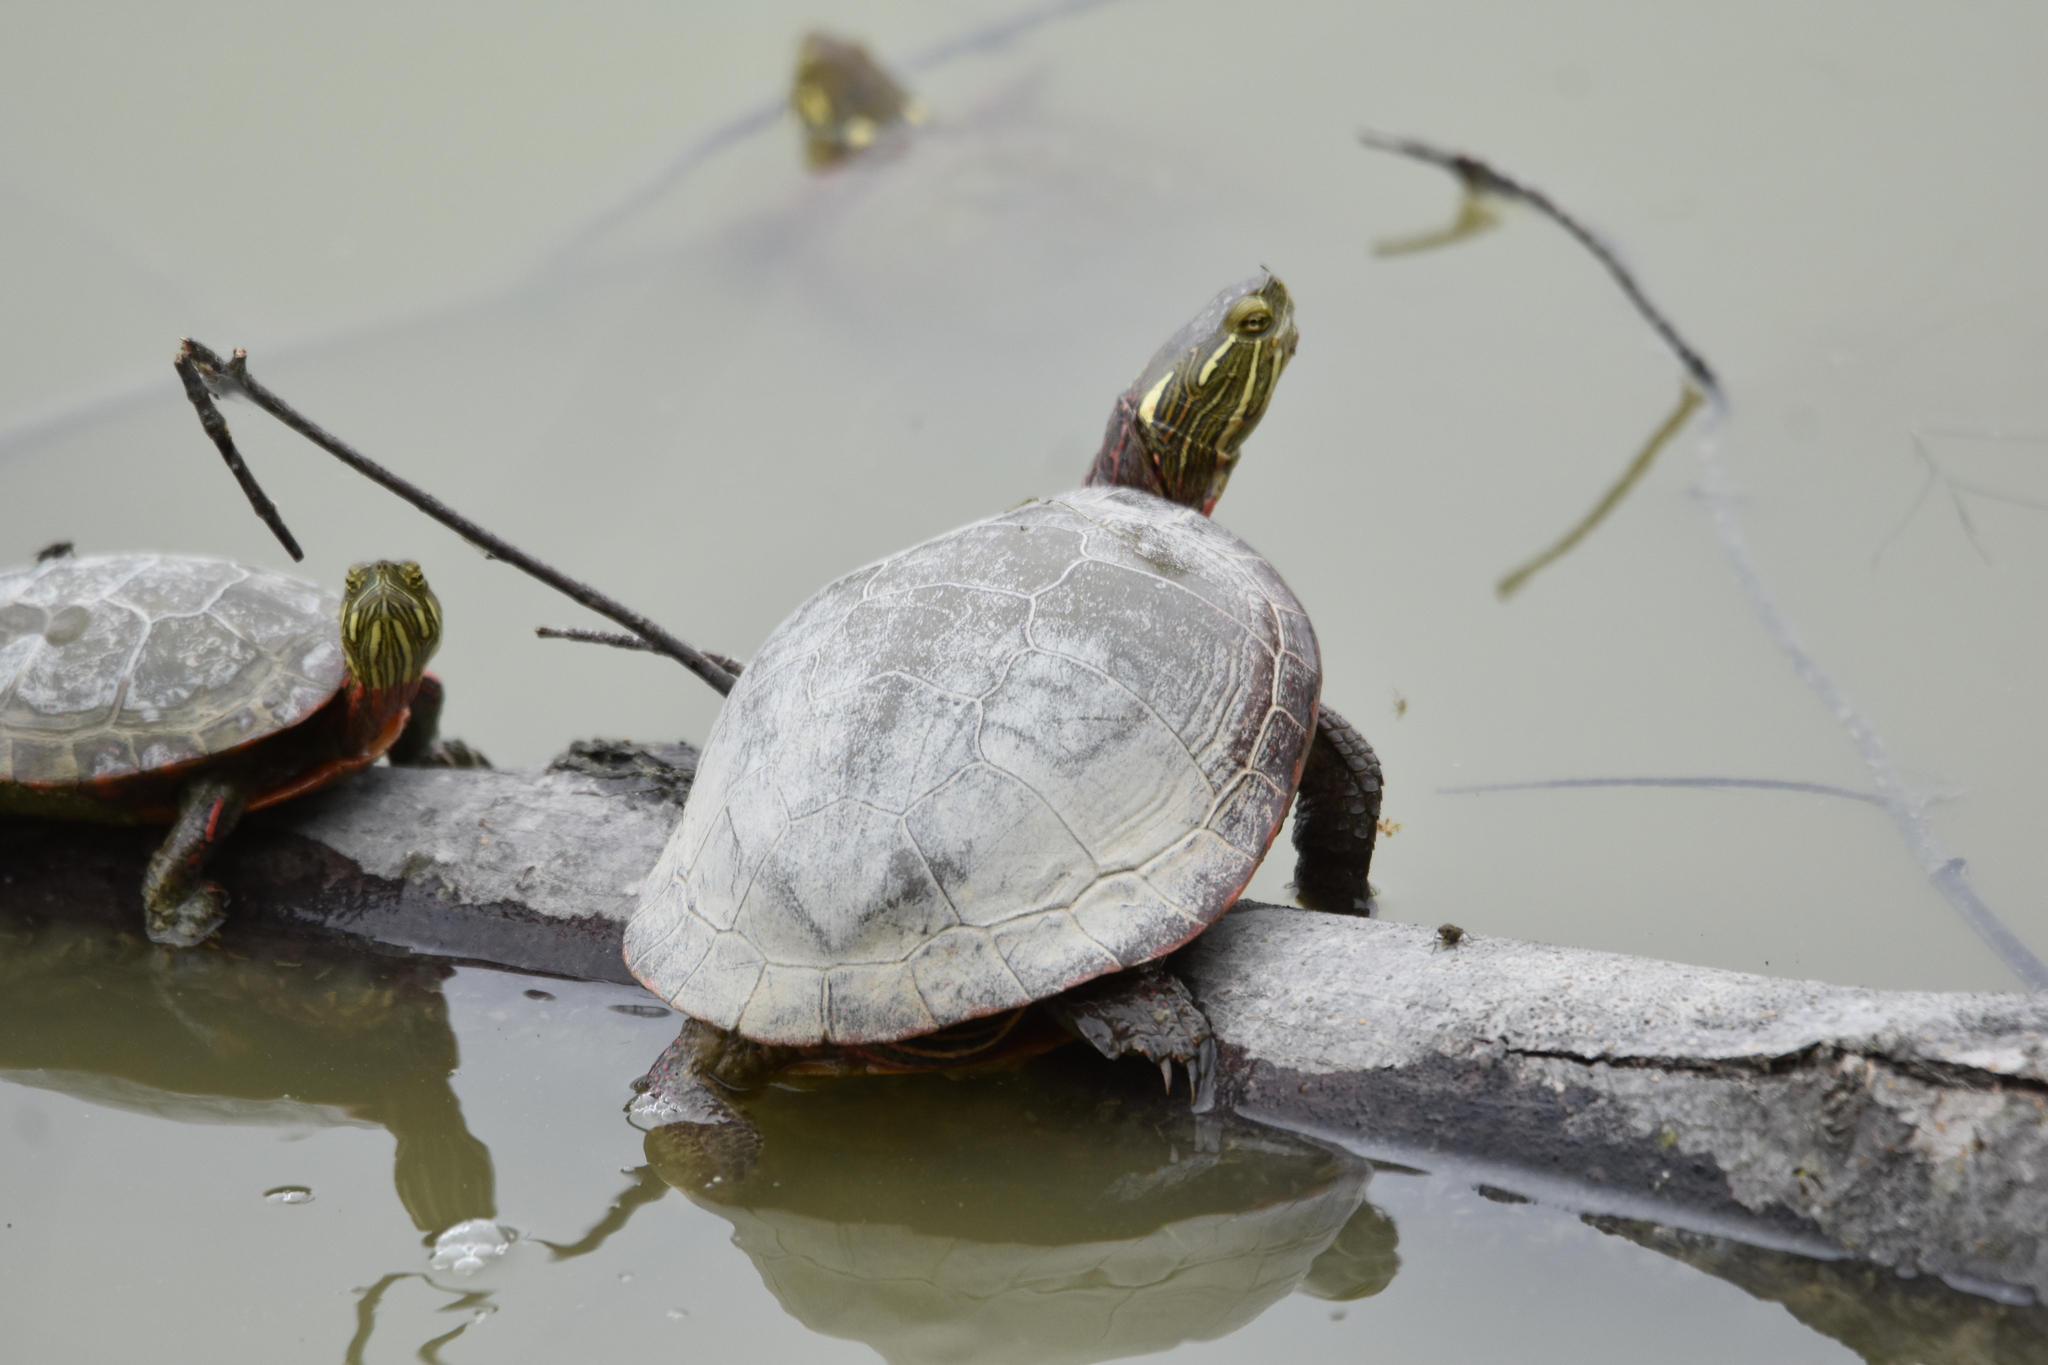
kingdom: Animalia
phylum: Chordata
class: Testudines
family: Emydidae
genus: Chrysemys
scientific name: Chrysemys picta
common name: Painted turtle
